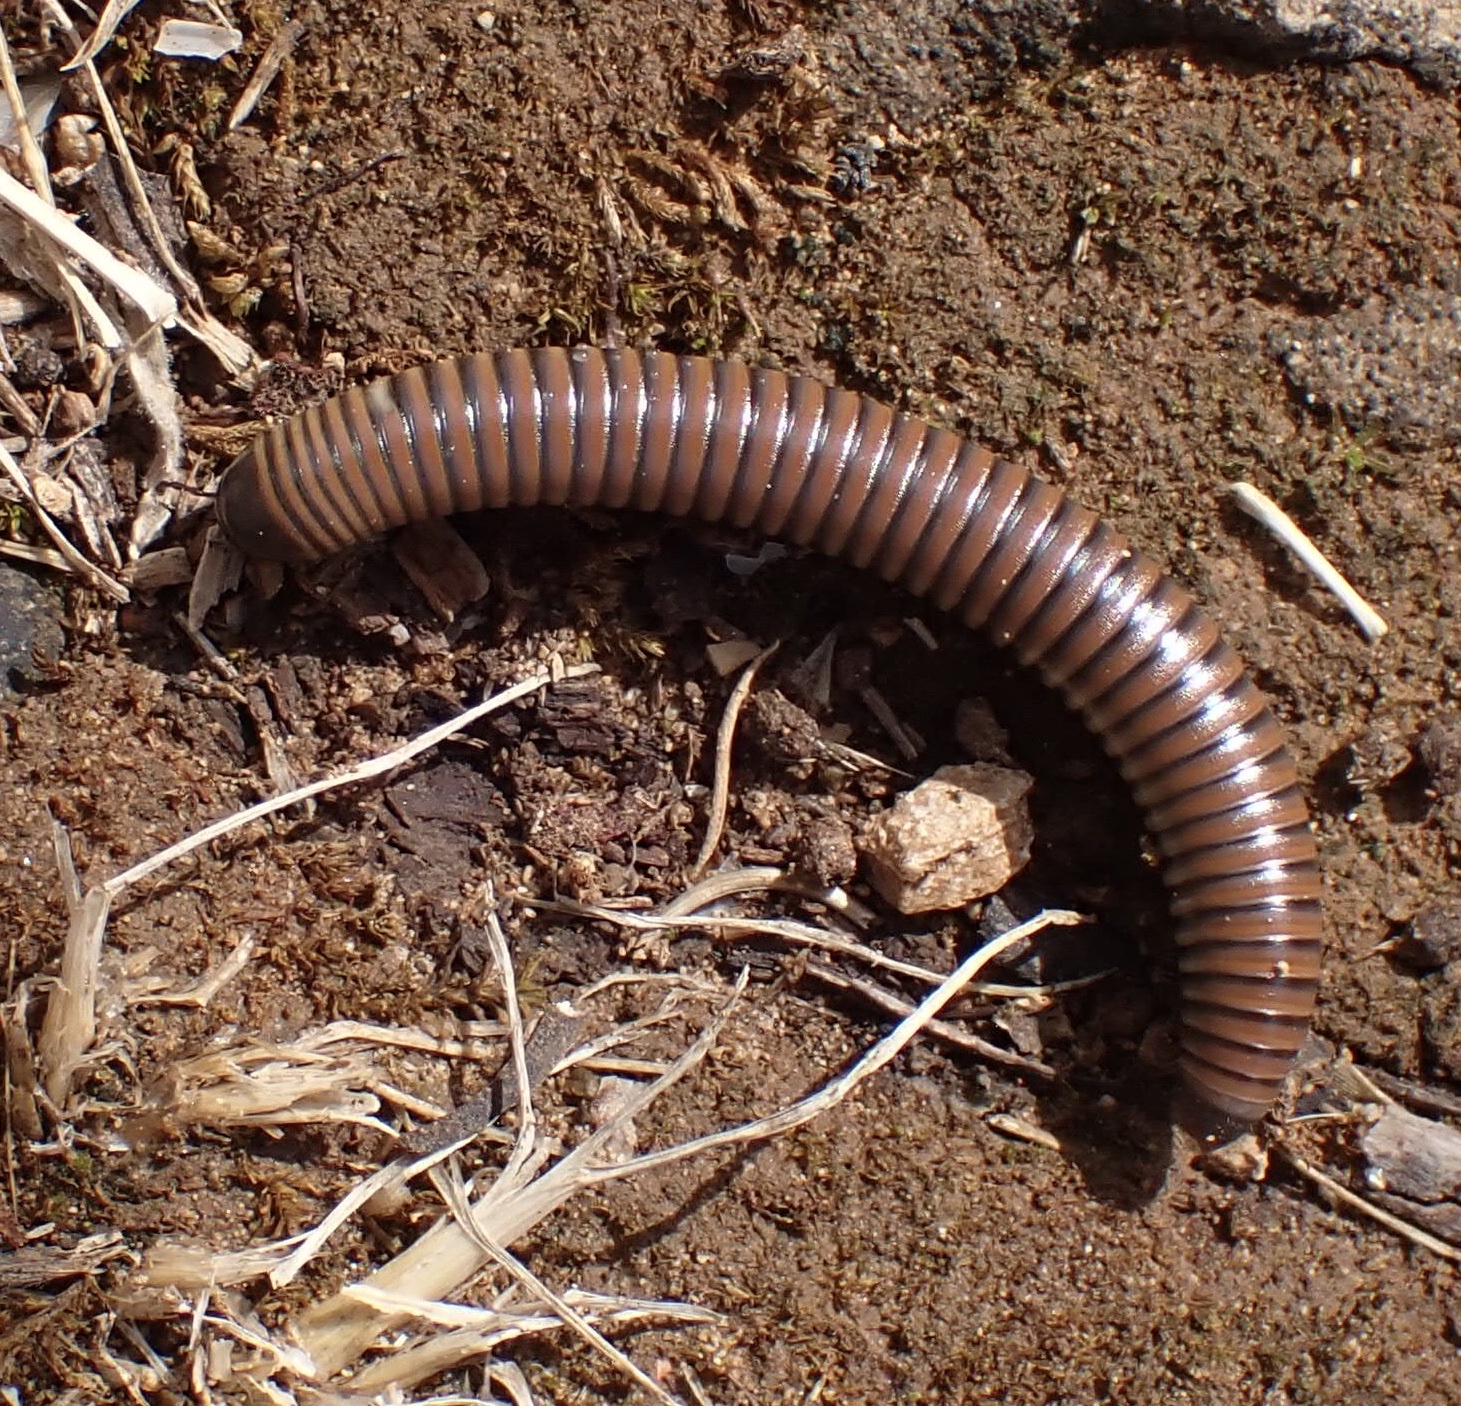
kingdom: Animalia
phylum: Arthropoda
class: Diplopoda
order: Julida
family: Julidae
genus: Acanthoiulus
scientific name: Acanthoiulus fuscipes
